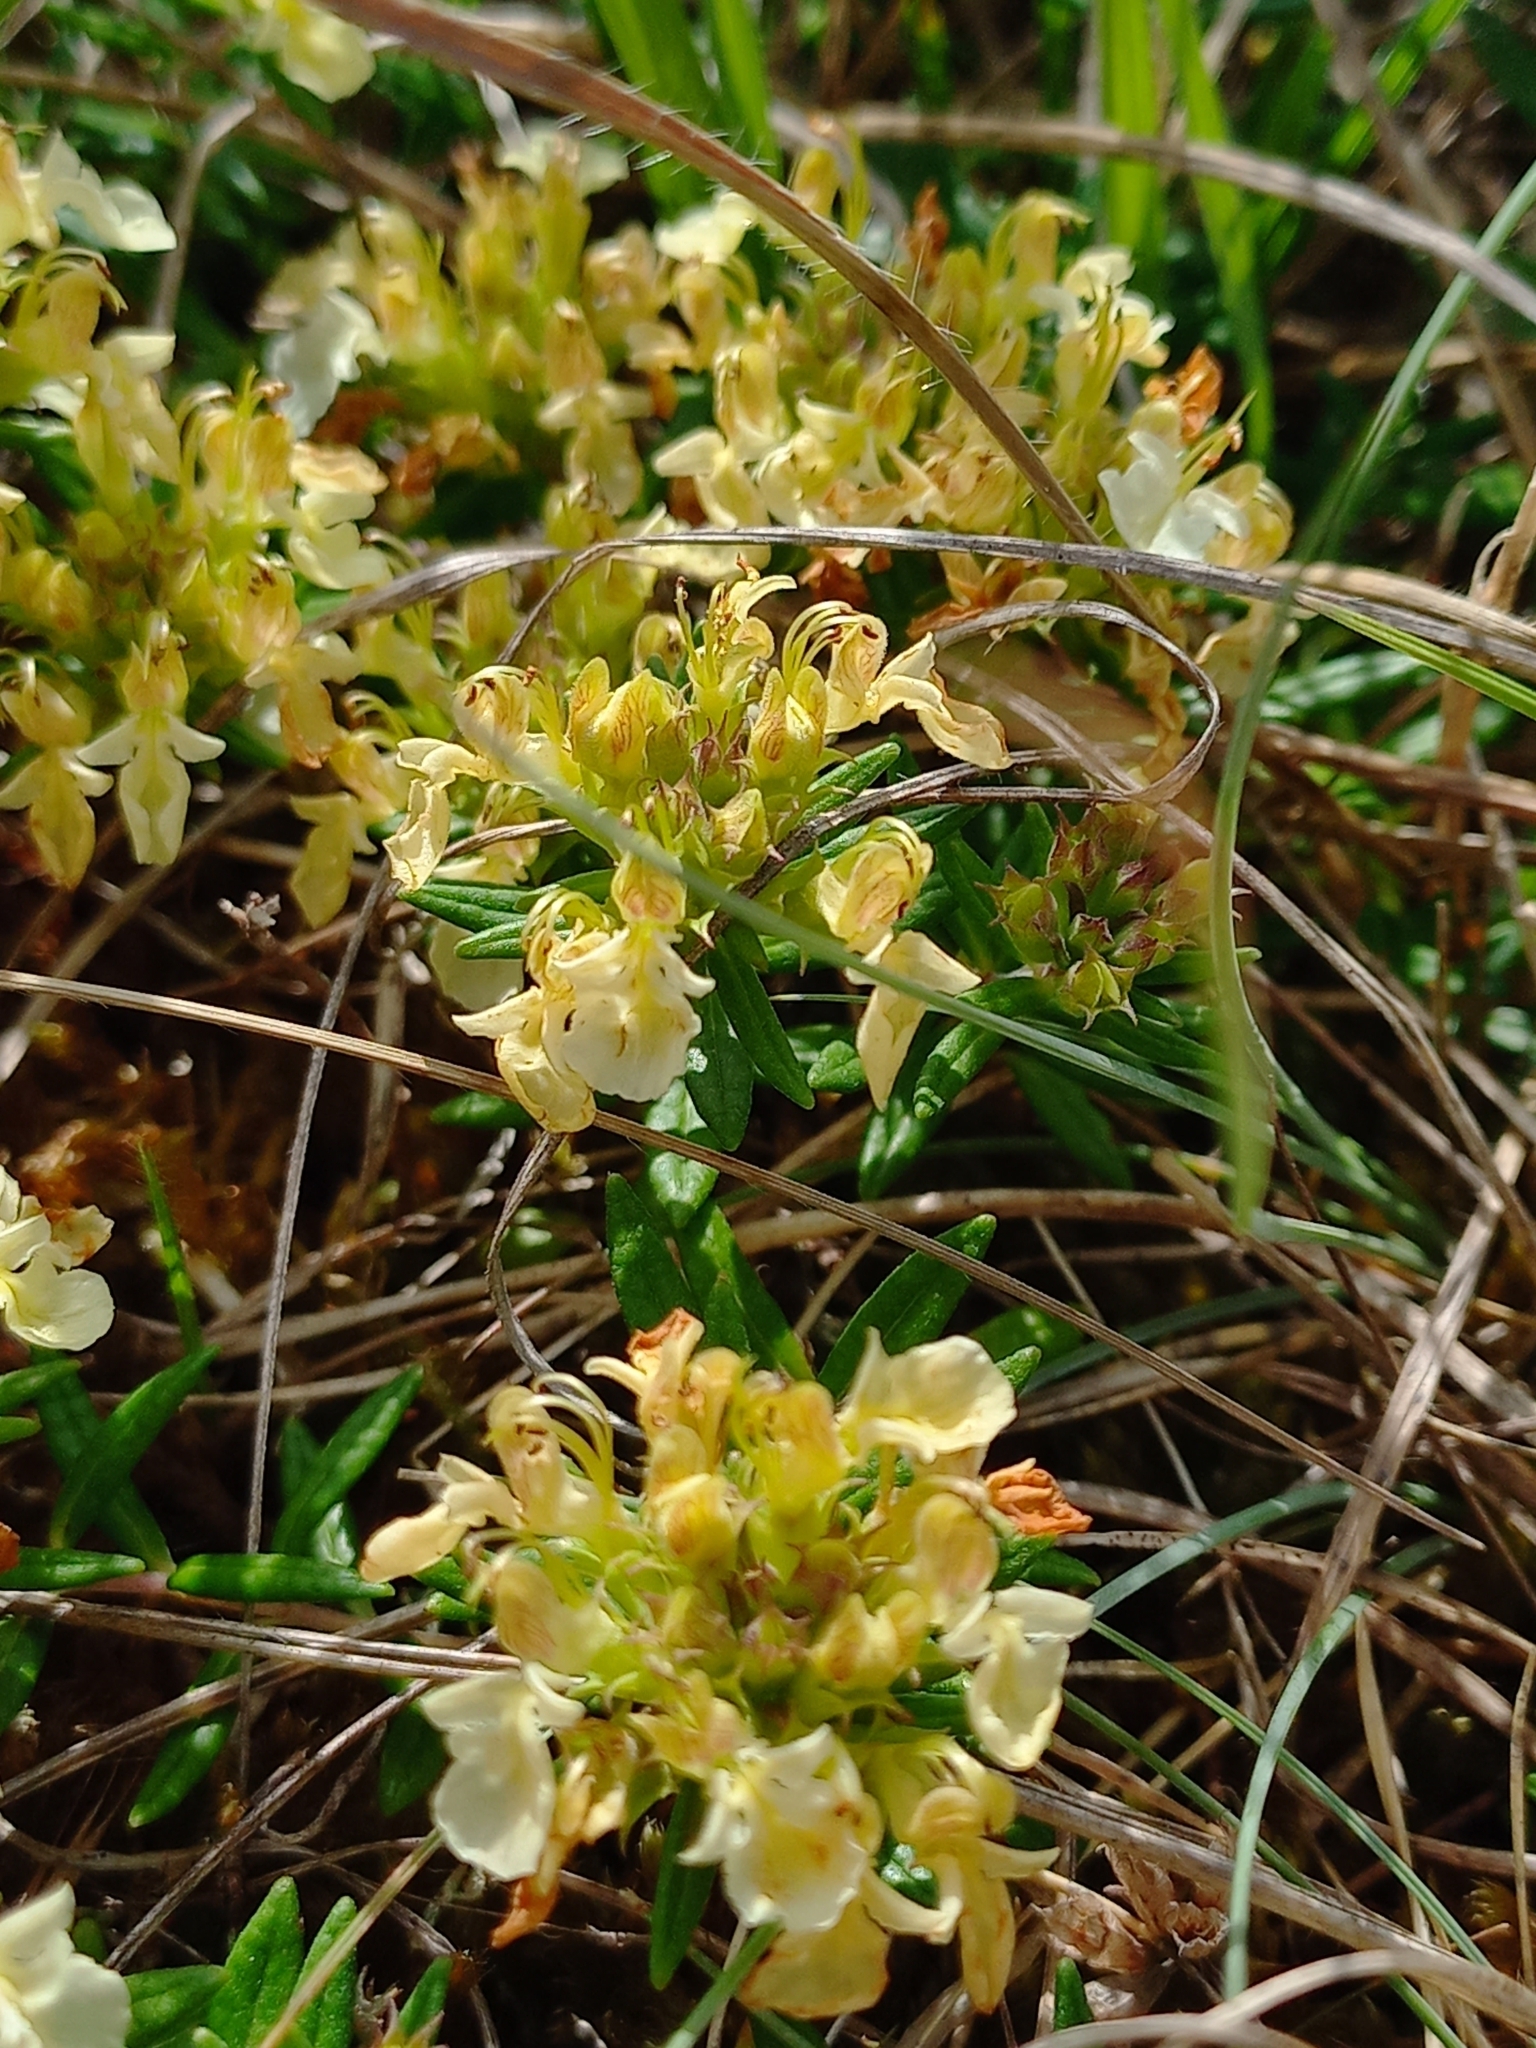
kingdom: Plantae
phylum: Tracheophyta
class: Magnoliopsida
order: Lamiales
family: Lamiaceae
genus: Teucrium
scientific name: Teucrium montanum
